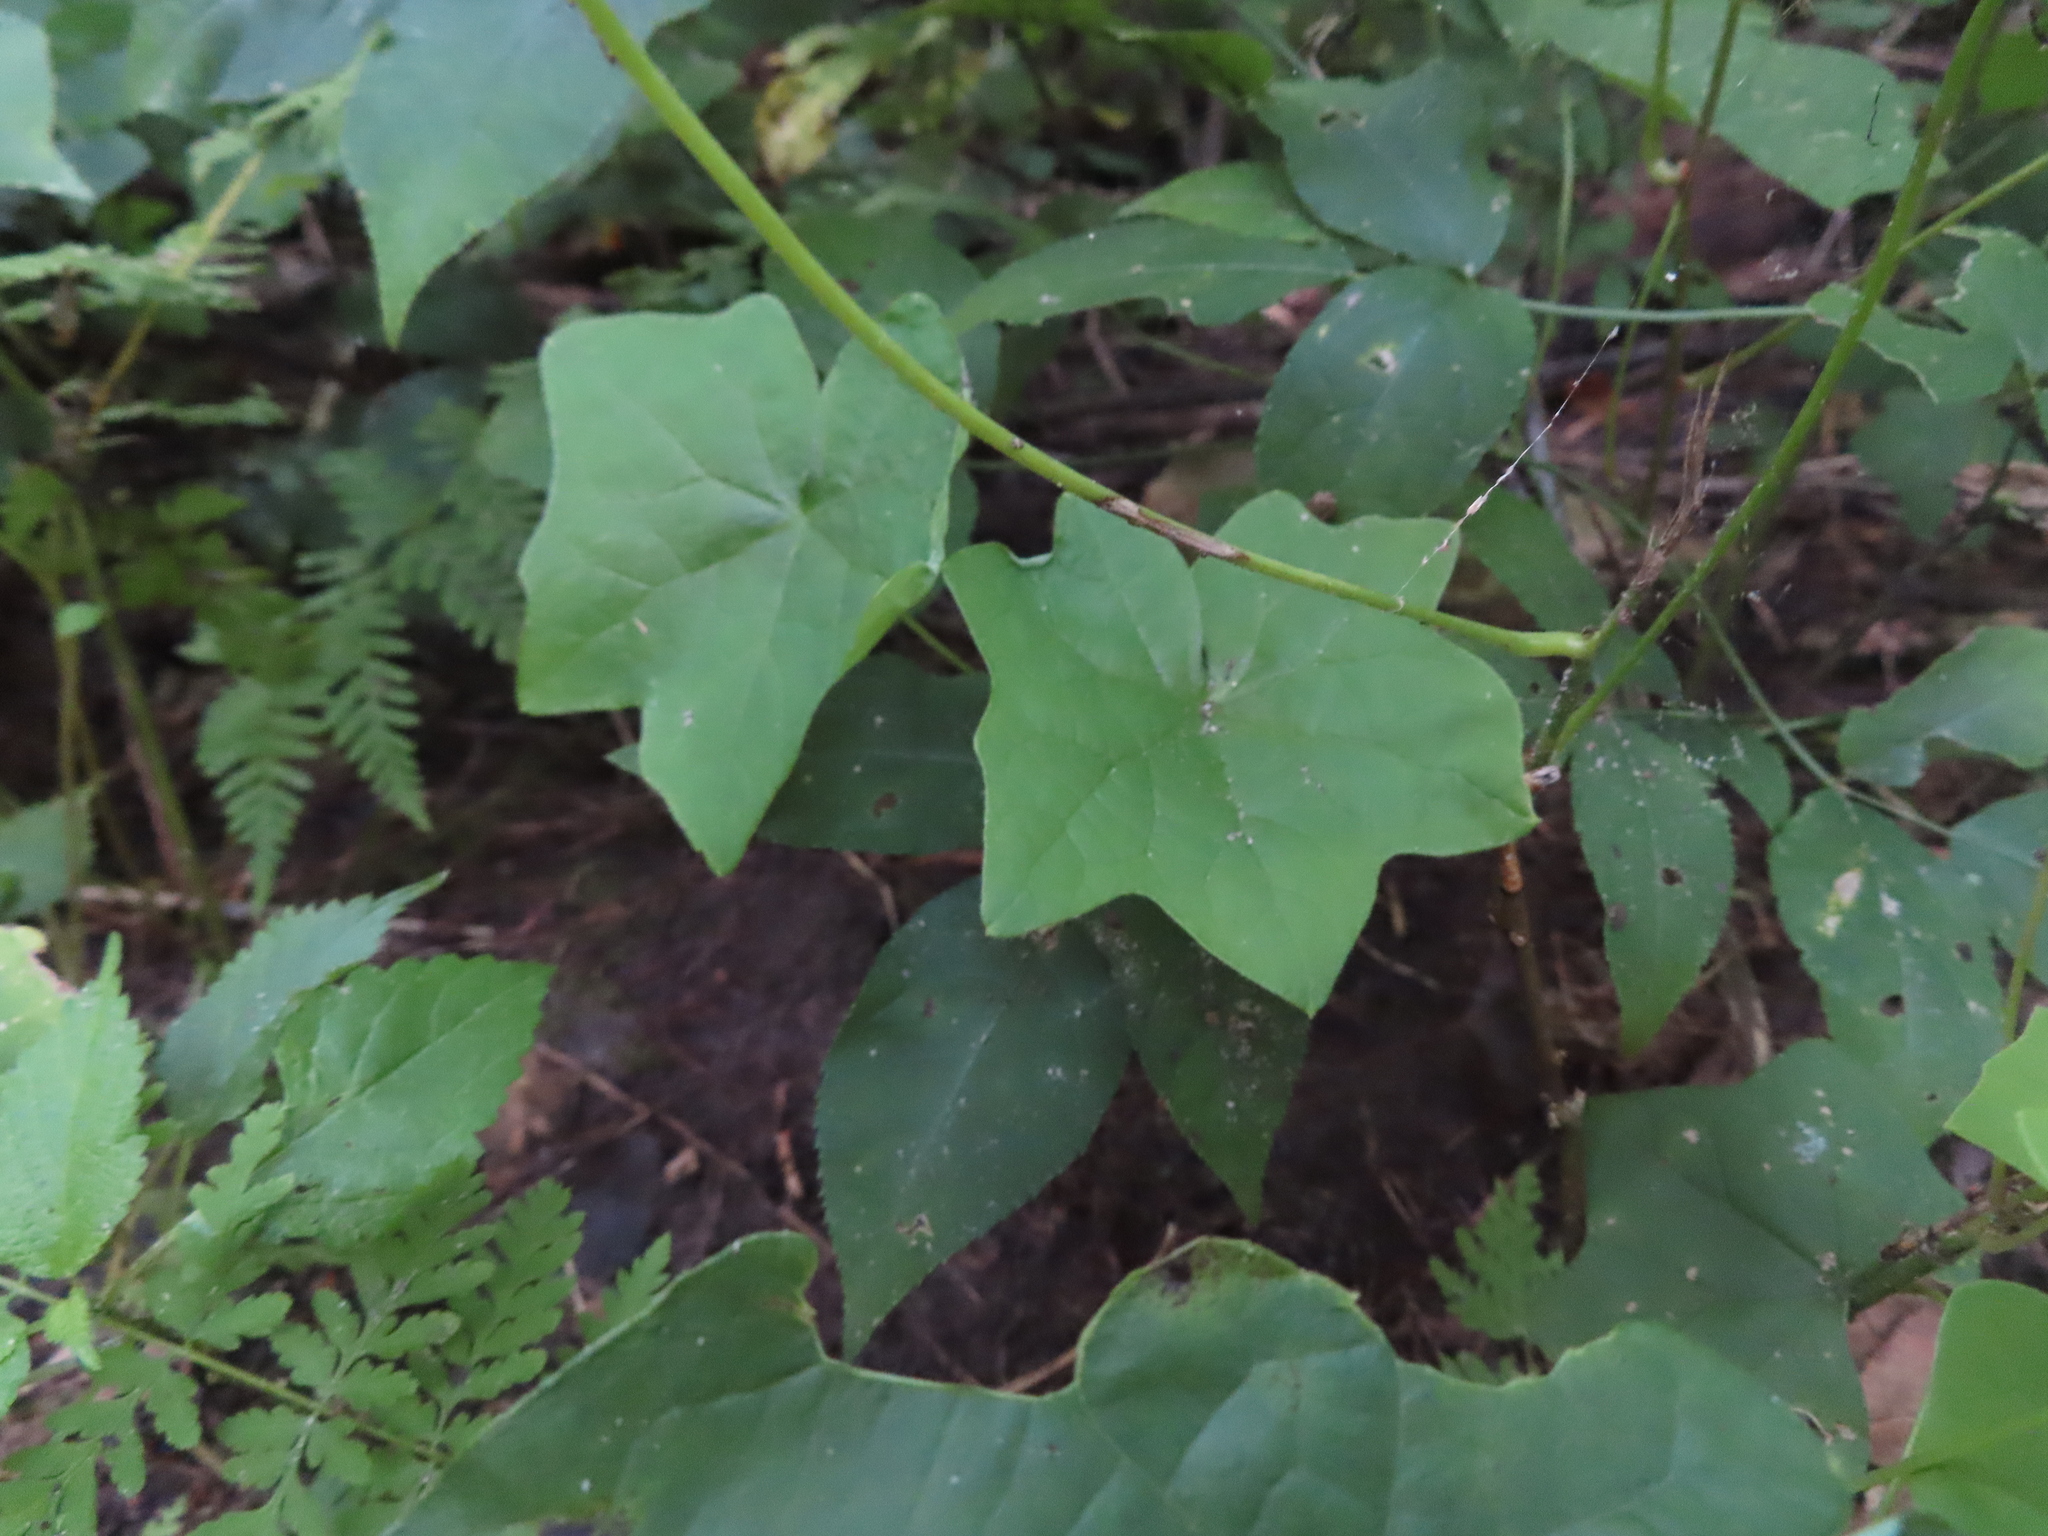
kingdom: Plantae
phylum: Tracheophyta
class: Magnoliopsida
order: Ranunculales
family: Menispermaceae
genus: Menispermum
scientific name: Menispermum canadense
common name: Moonseed
